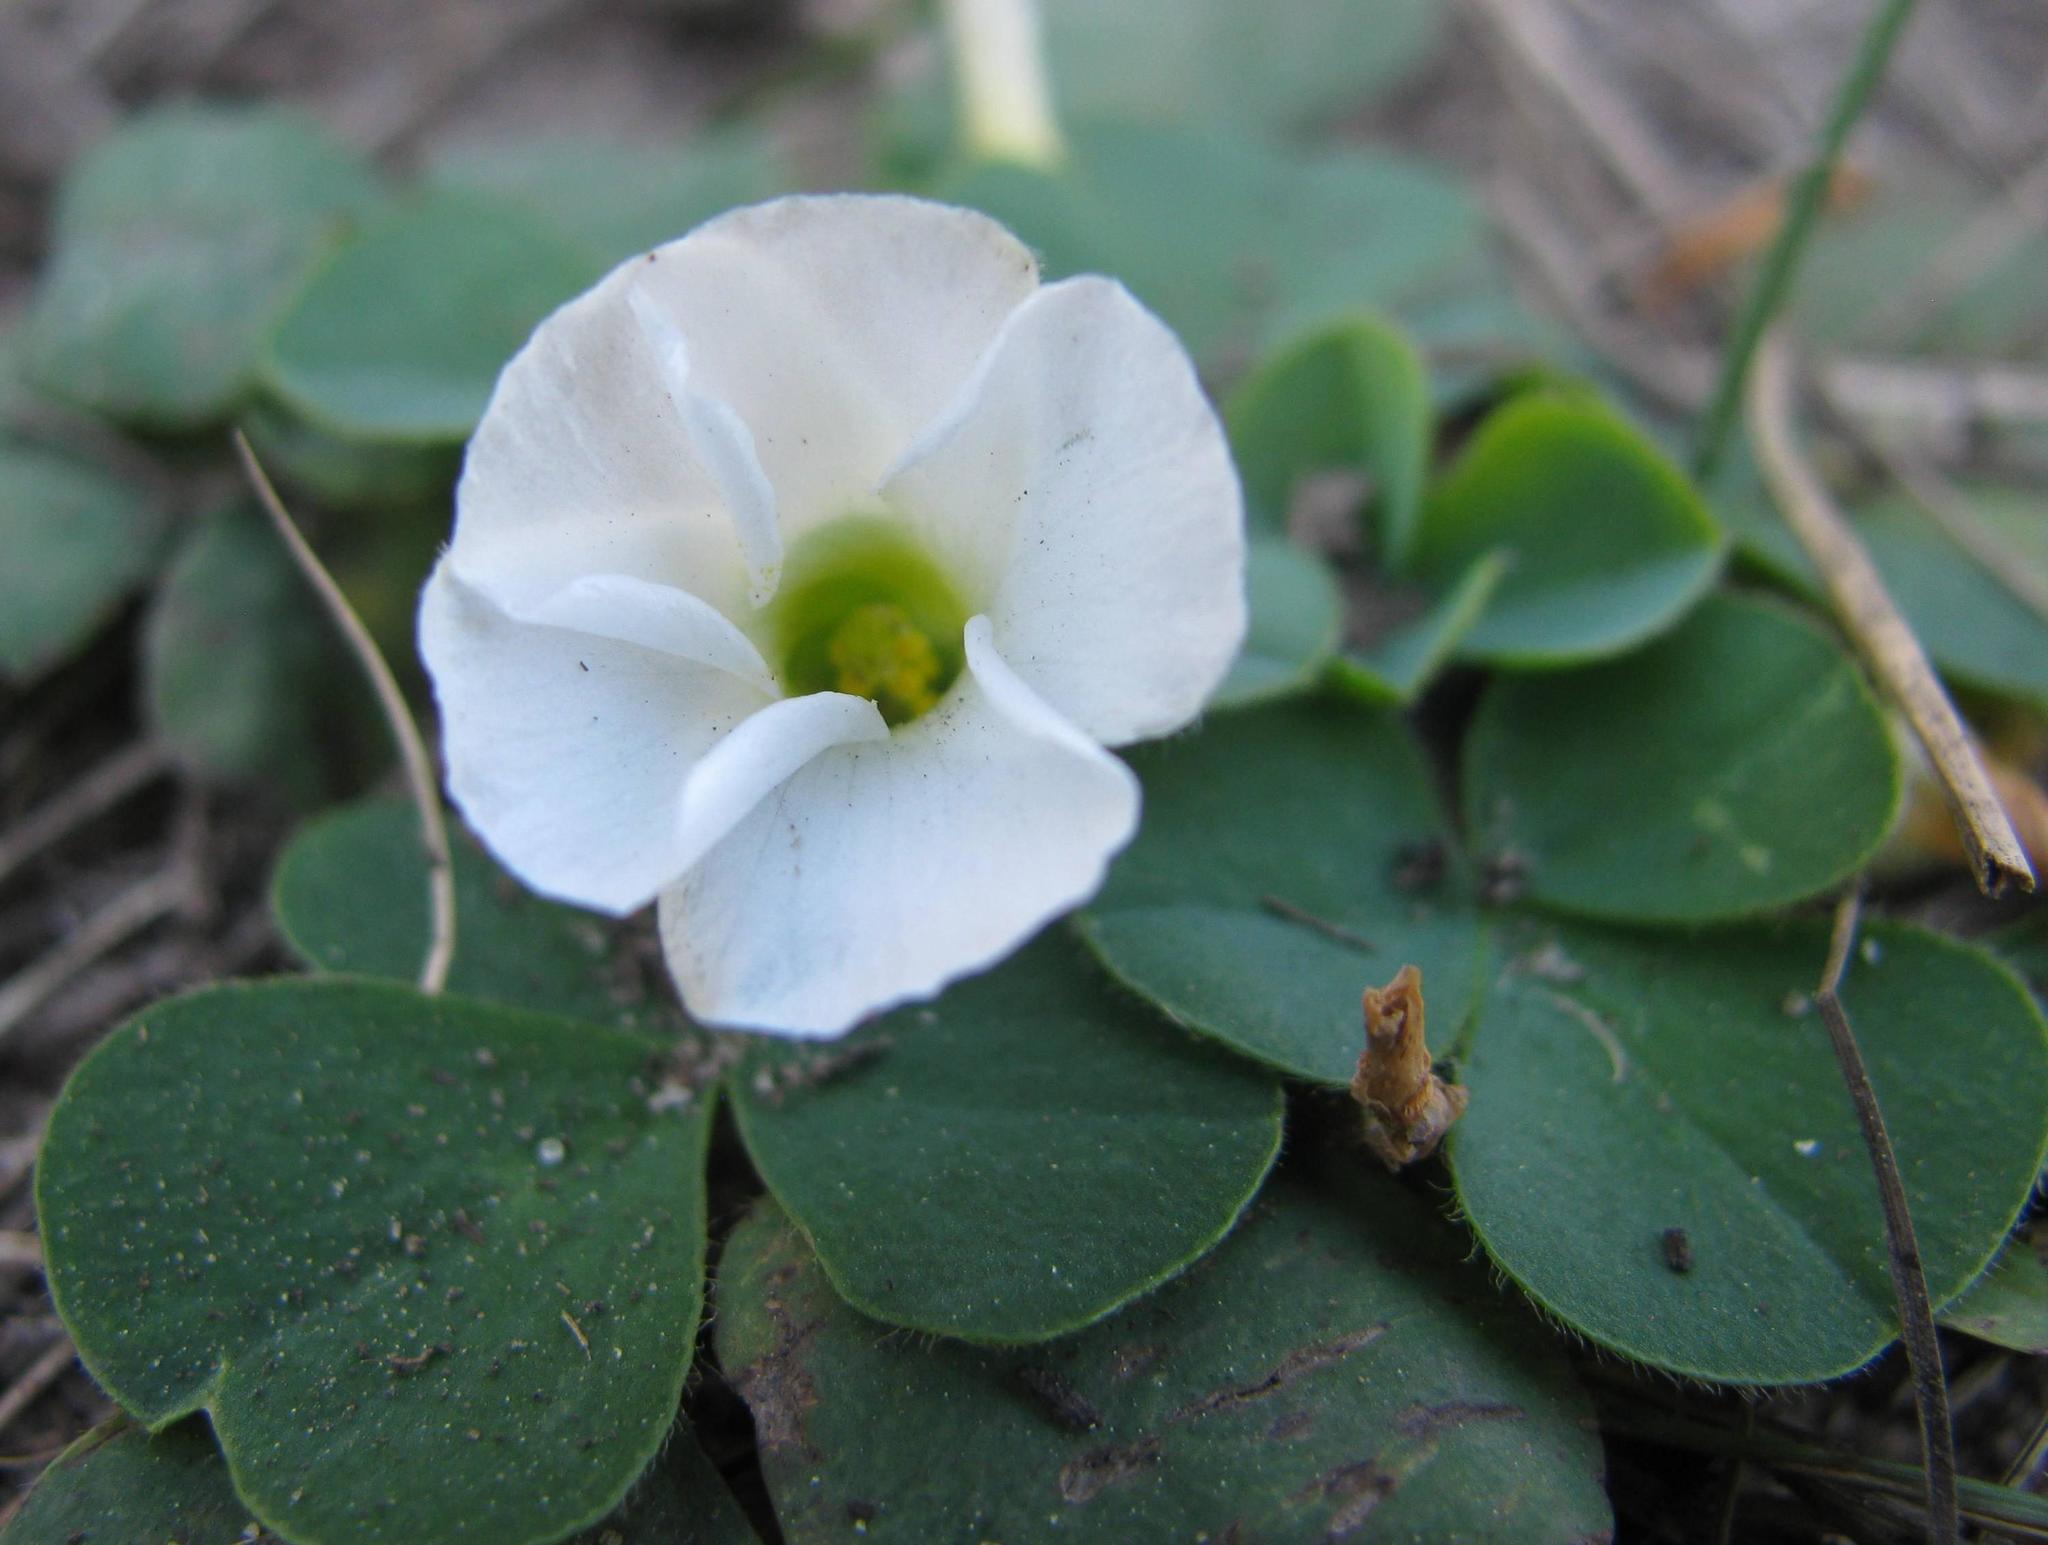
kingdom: Plantae
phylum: Tracheophyta
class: Magnoliopsida
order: Oxalidales
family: Oxalidaceae
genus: Oxalis
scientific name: Oxalis purpurea
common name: Purple woodsorrel
